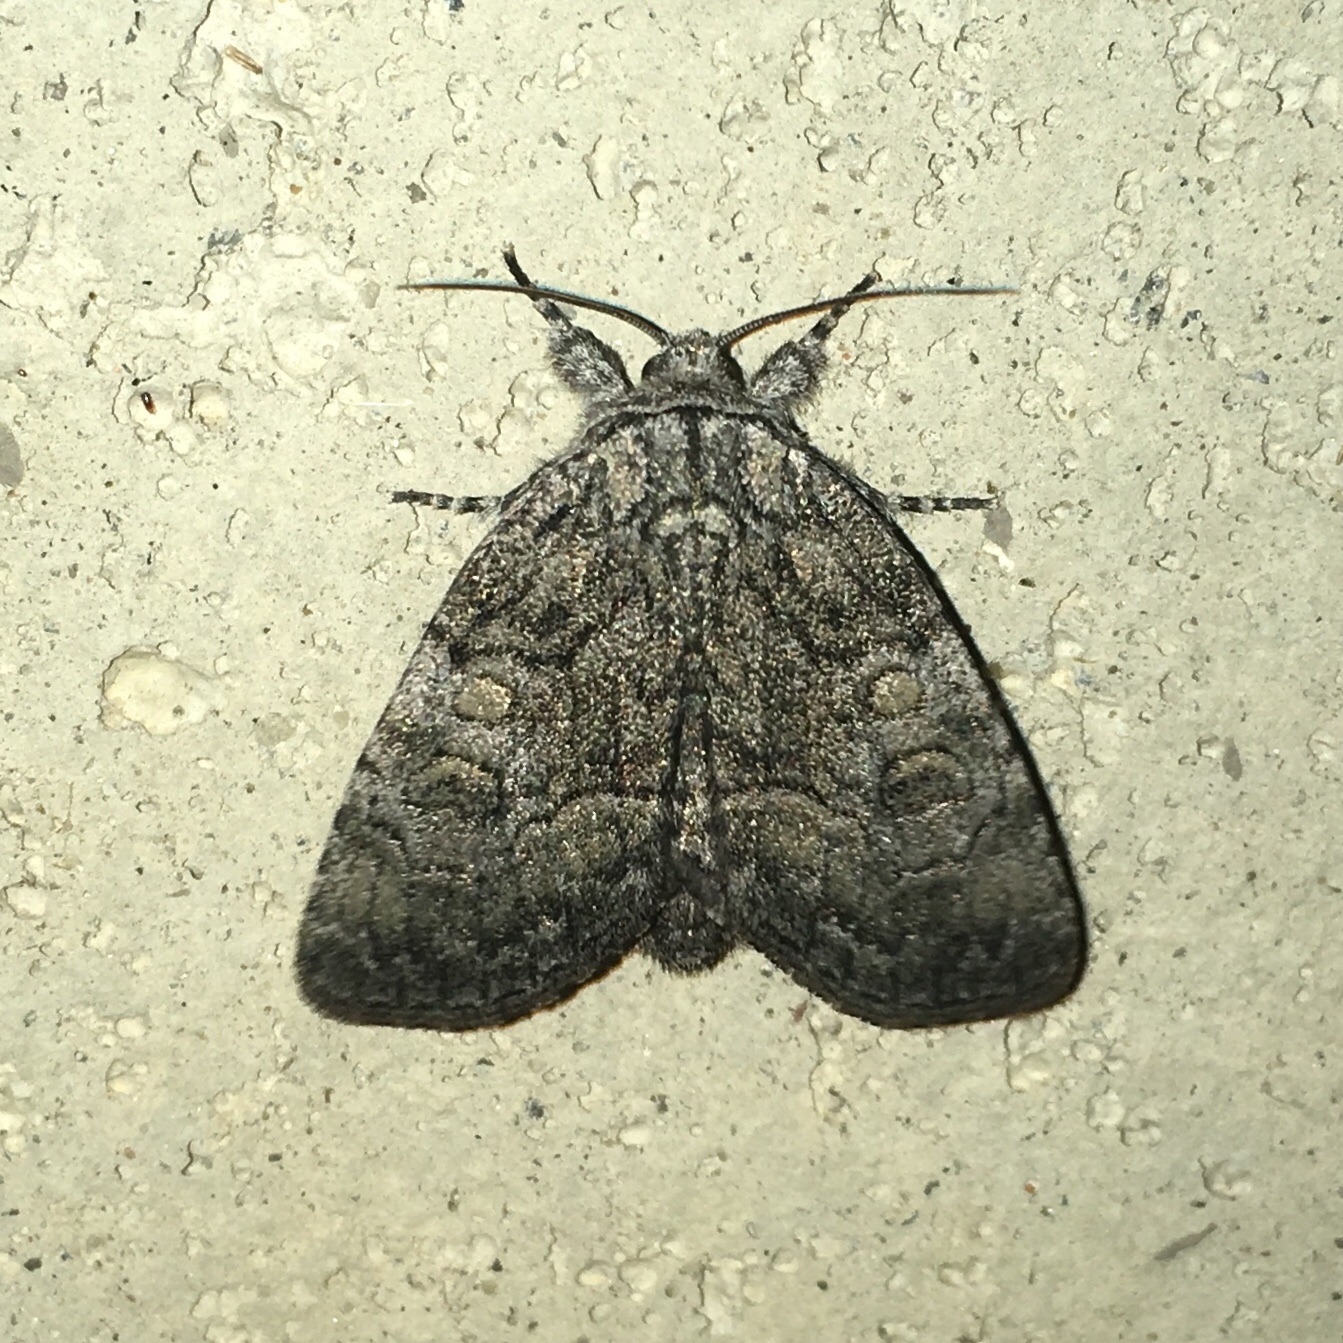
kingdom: Animalia
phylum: Arthropoda
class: Insecta
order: Lepidoptera
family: Noctuidae
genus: Raphia
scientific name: Raphia frater
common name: Brother
